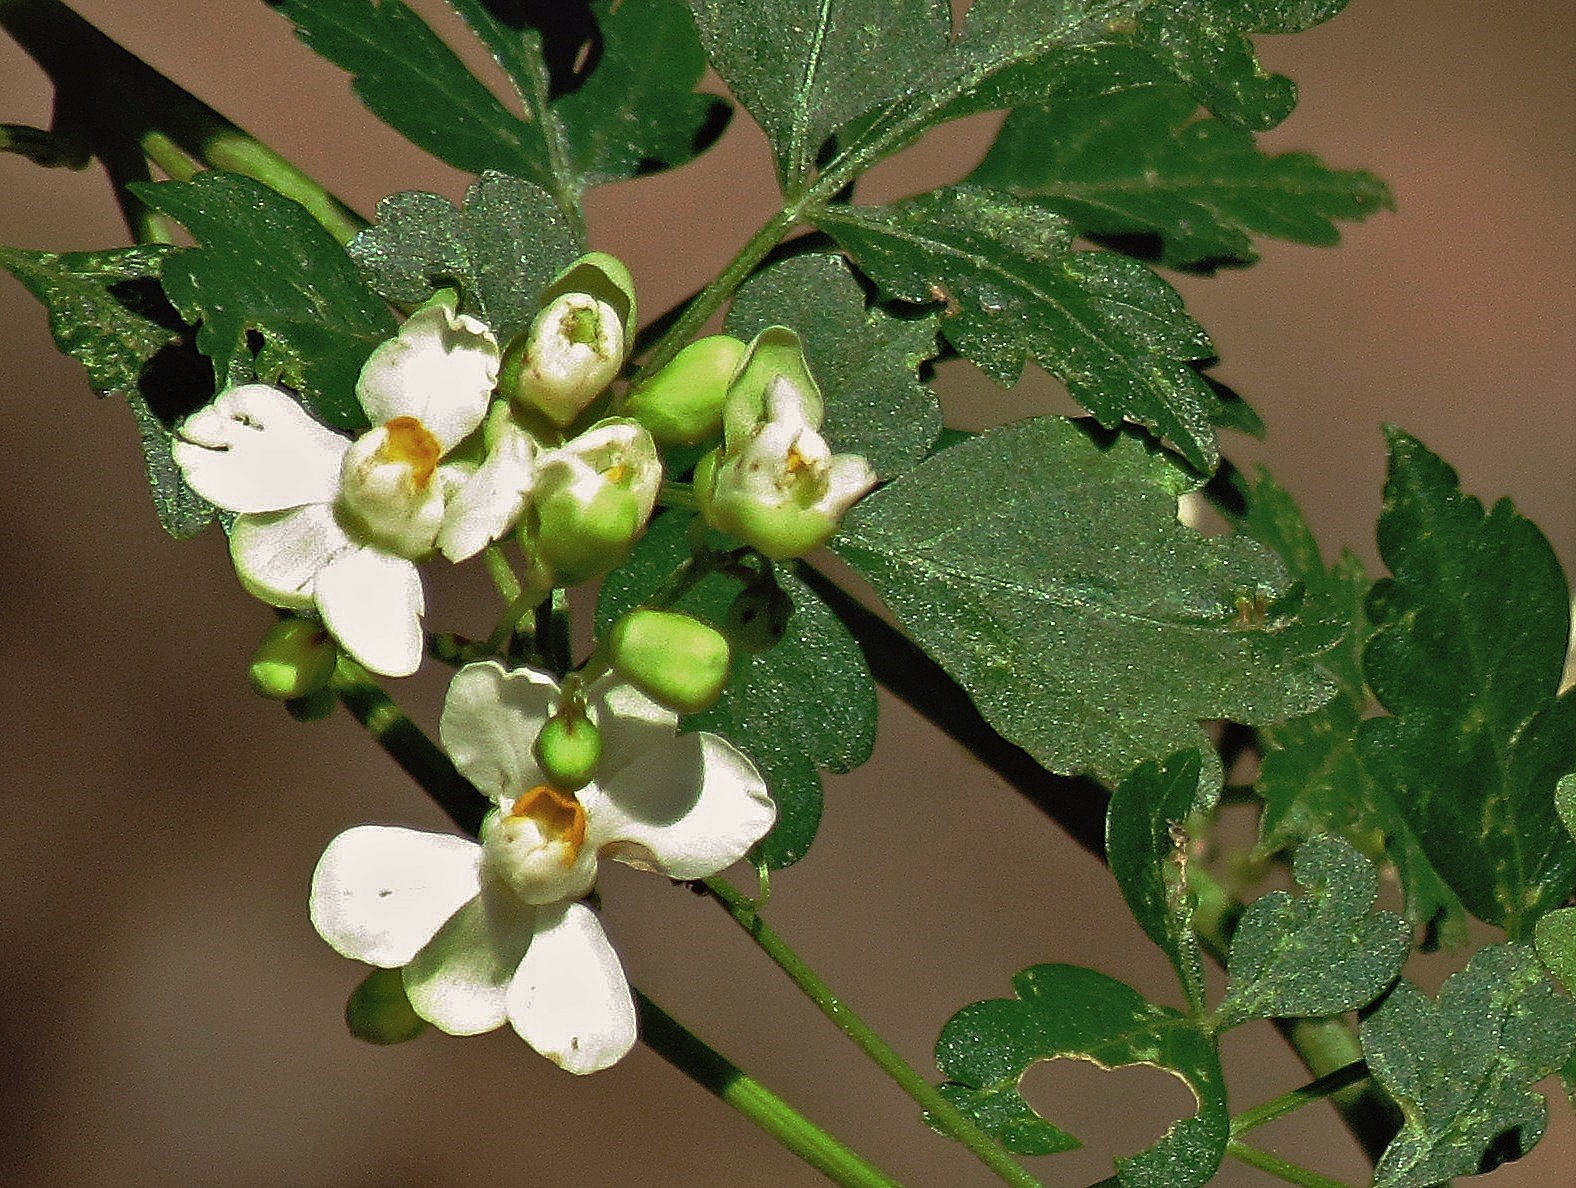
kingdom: Plantae
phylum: Tracheophyta
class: Magnoliopsida
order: Sapindales
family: Sapindaceae
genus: Cardiospermum
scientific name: Cardiospermum grandiflorum
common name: Balloon vine
